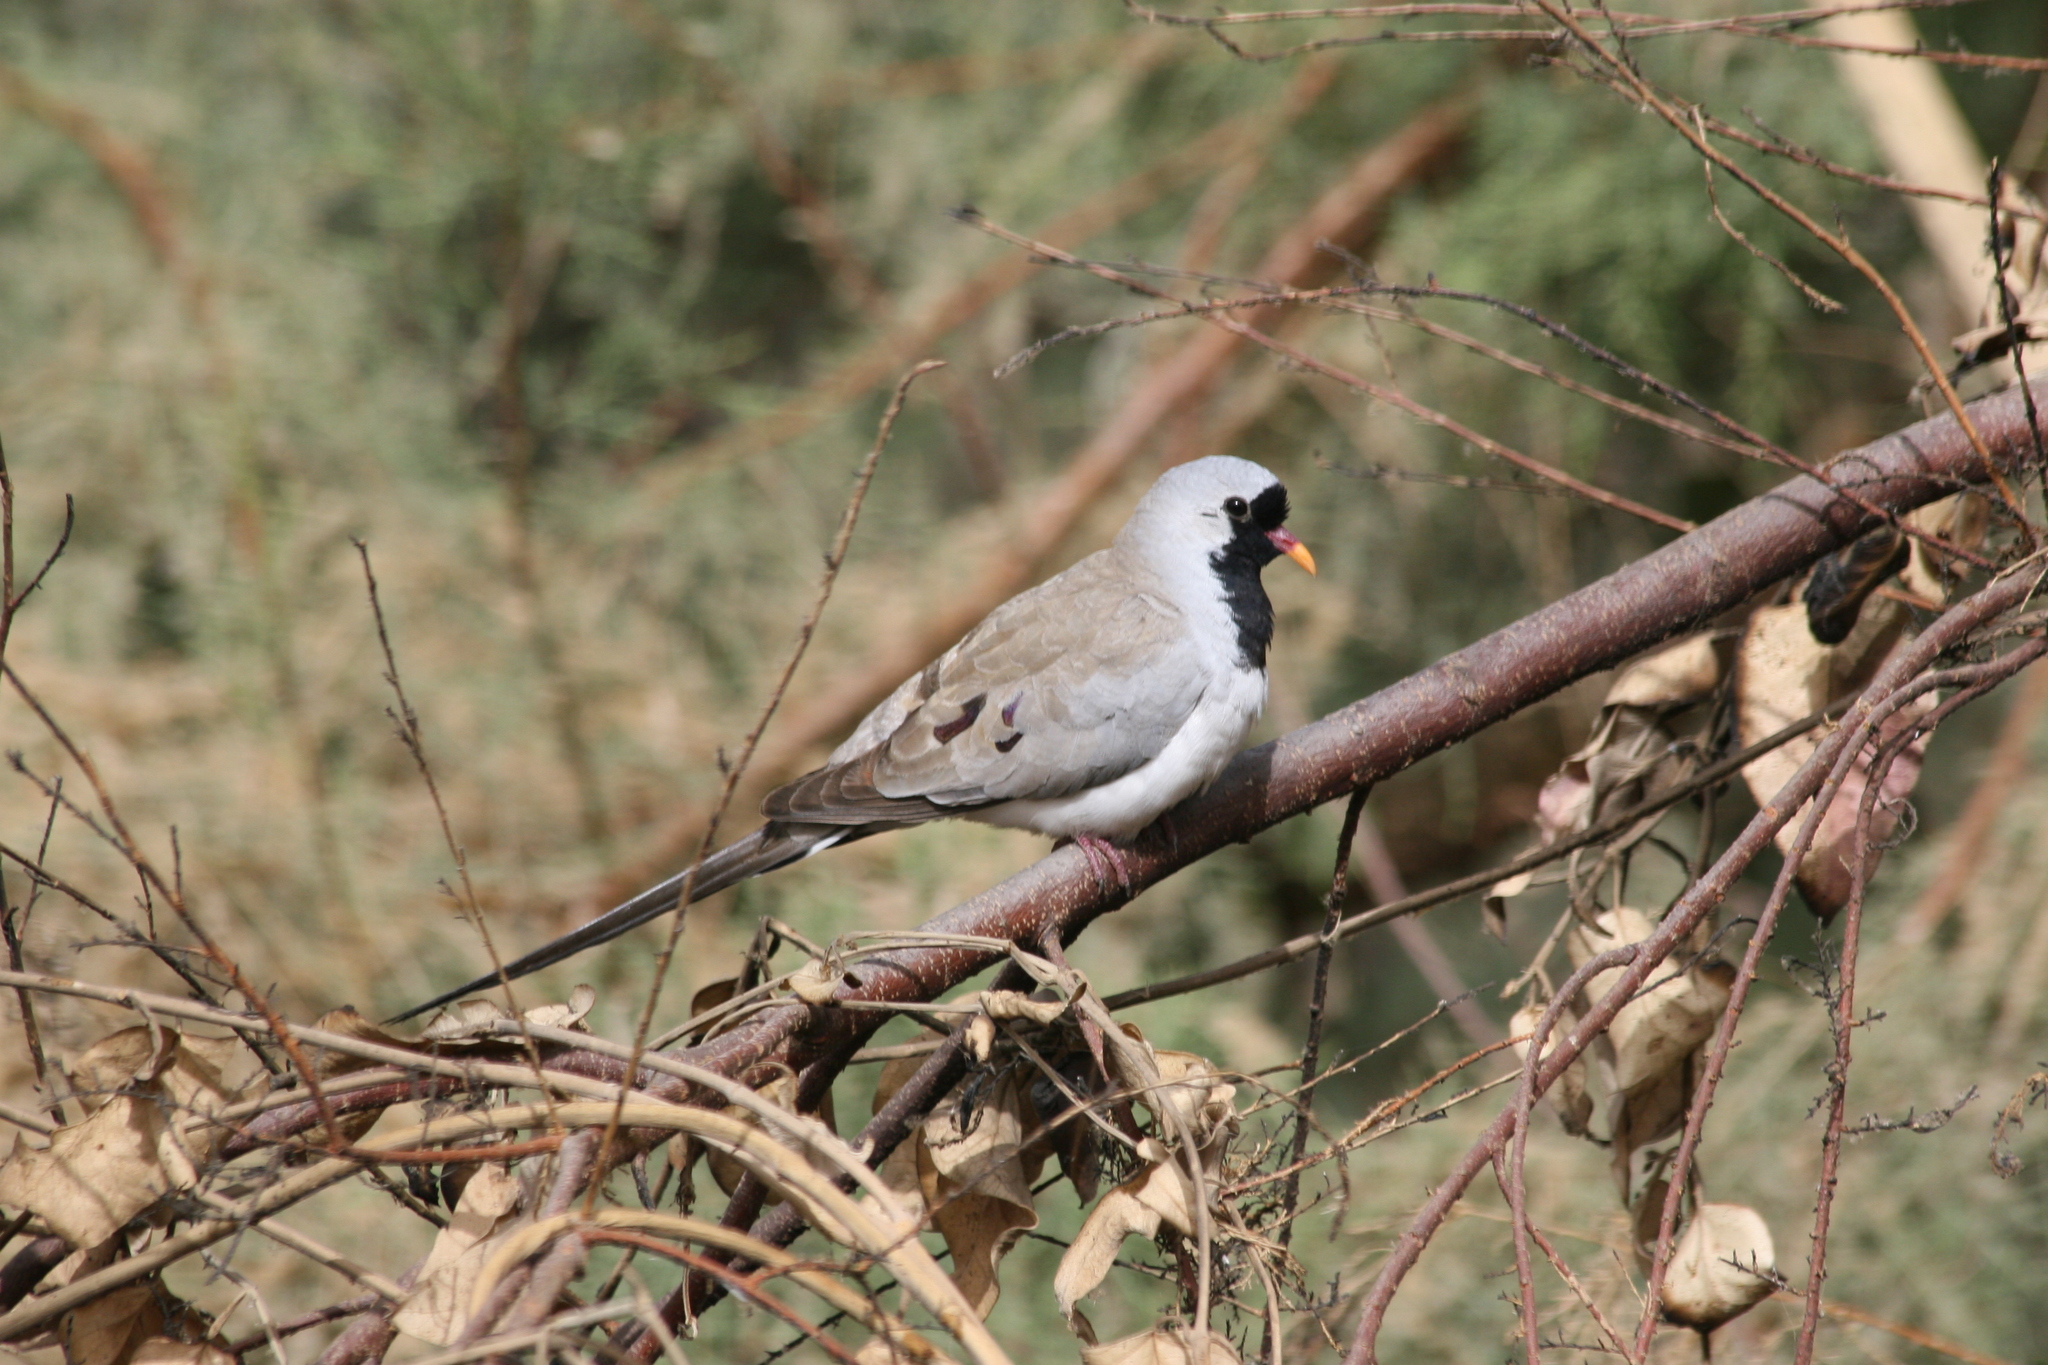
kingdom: Animalia
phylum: Chordata
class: Aves
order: Columbiformes
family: Columbidae
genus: Oena
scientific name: Oena capensis
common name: Namaqua dove
